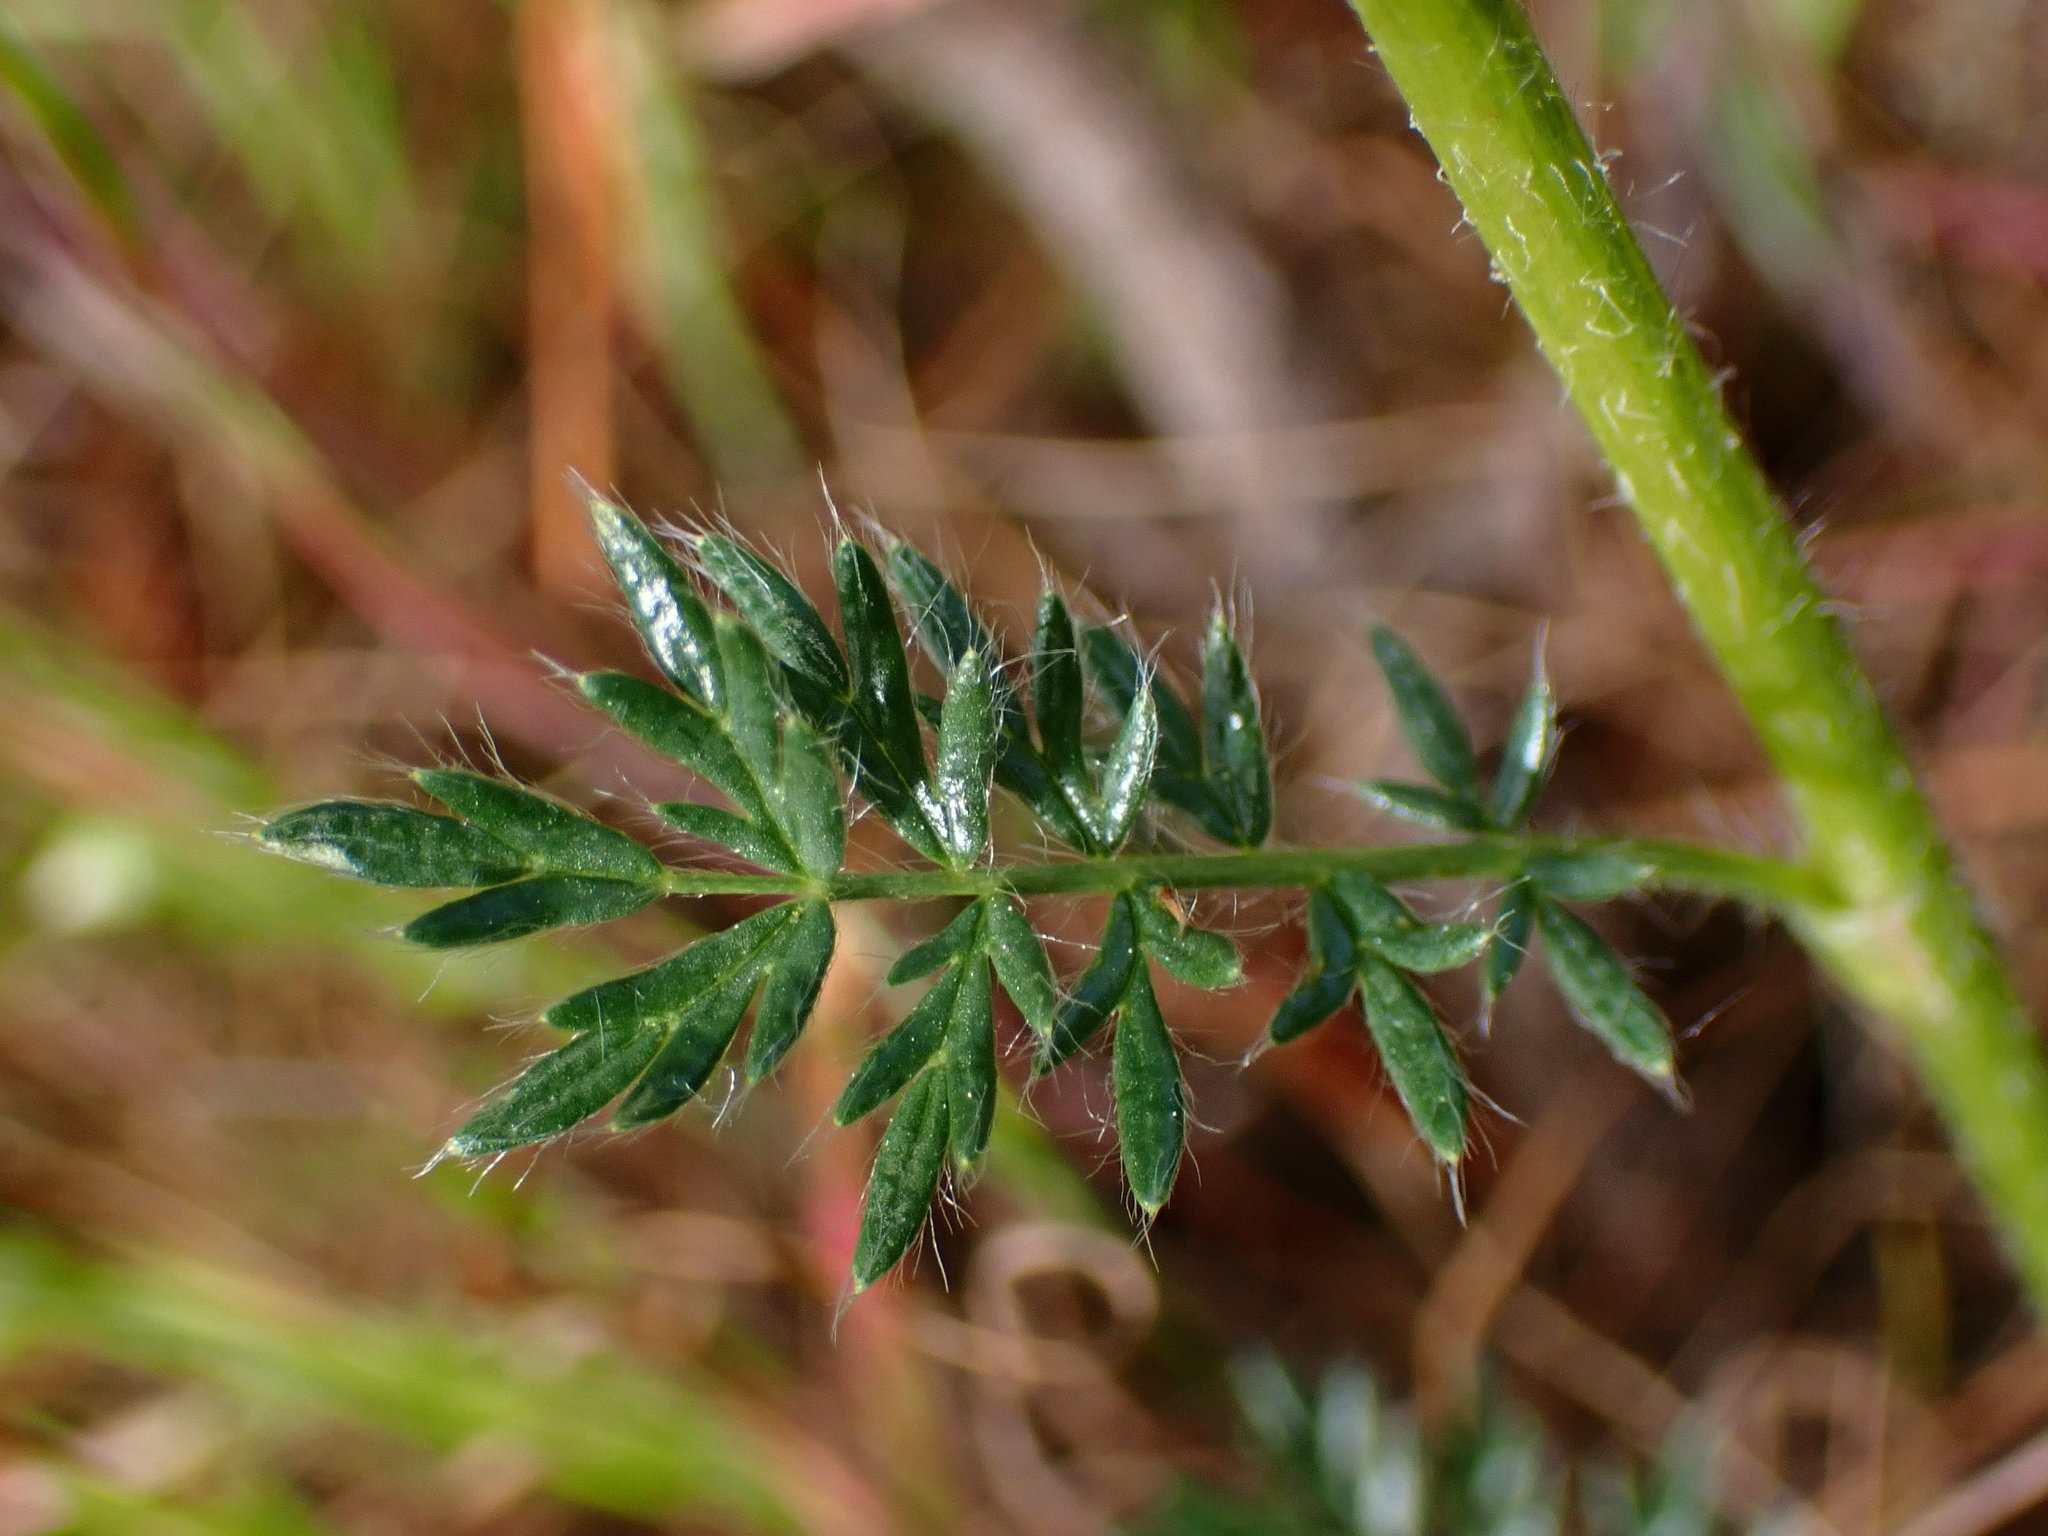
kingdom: Plantae
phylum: Tracheophyta
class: Magnoliopsida
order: Rosales
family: Rosaceae
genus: Acaena
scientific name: Acaena pinnatifida
